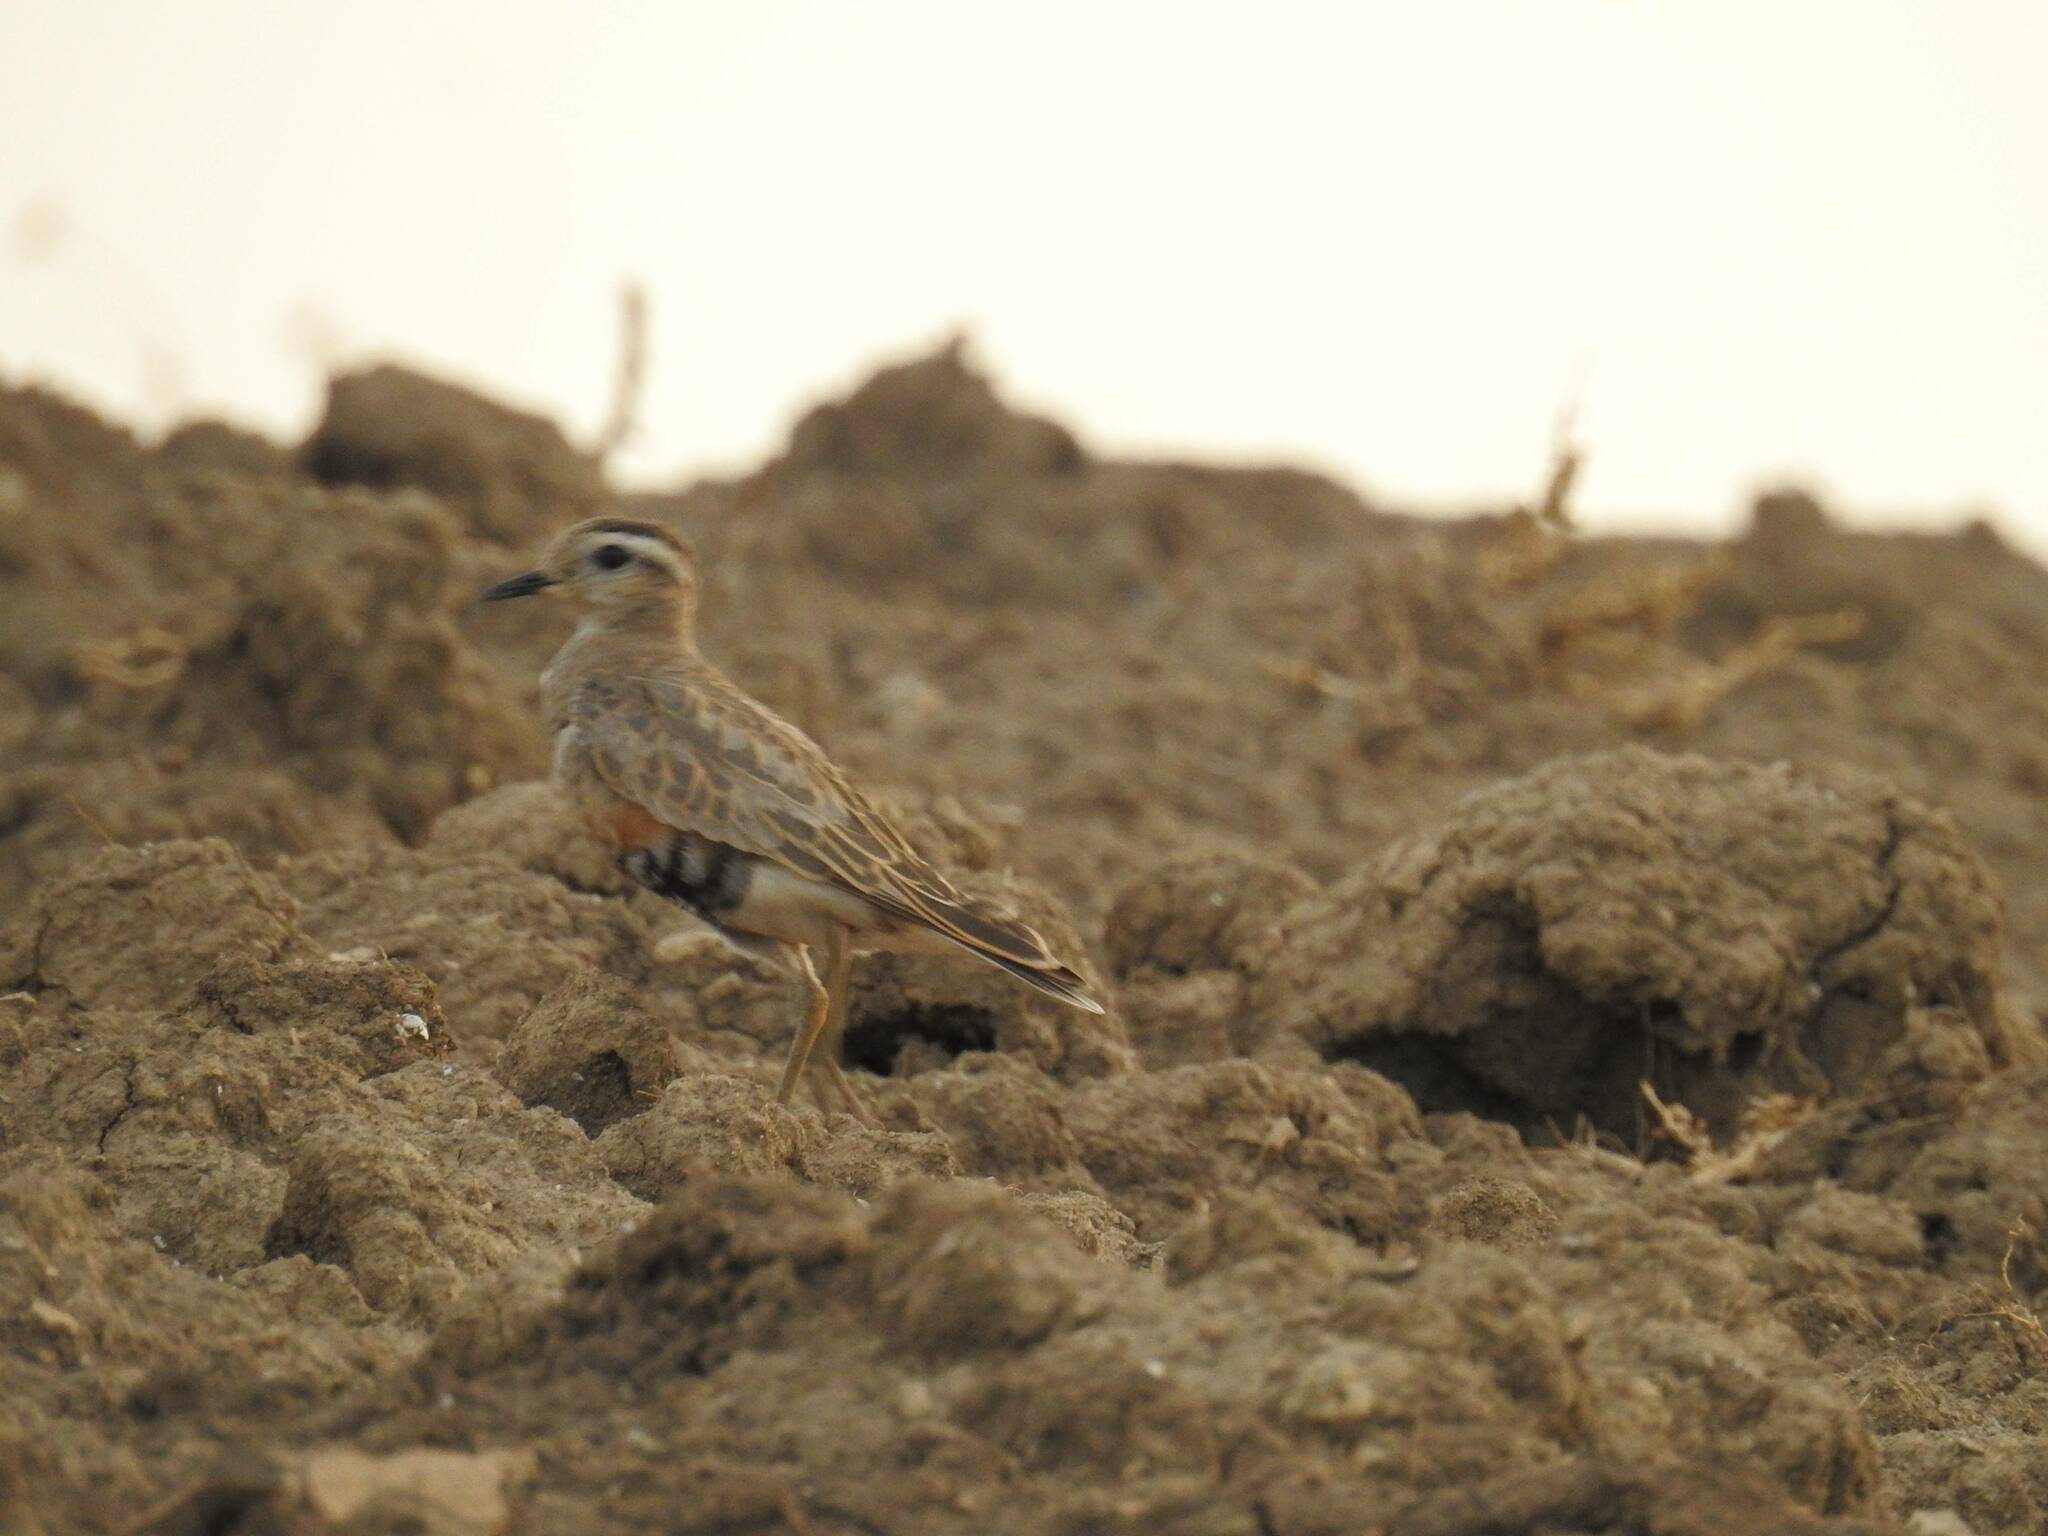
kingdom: Animalia
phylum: Chordata
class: Aves
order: Charadriiformes
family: Charadriidae
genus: Charadrius
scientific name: Charadrius morinellus
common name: Eurasian dotterel
